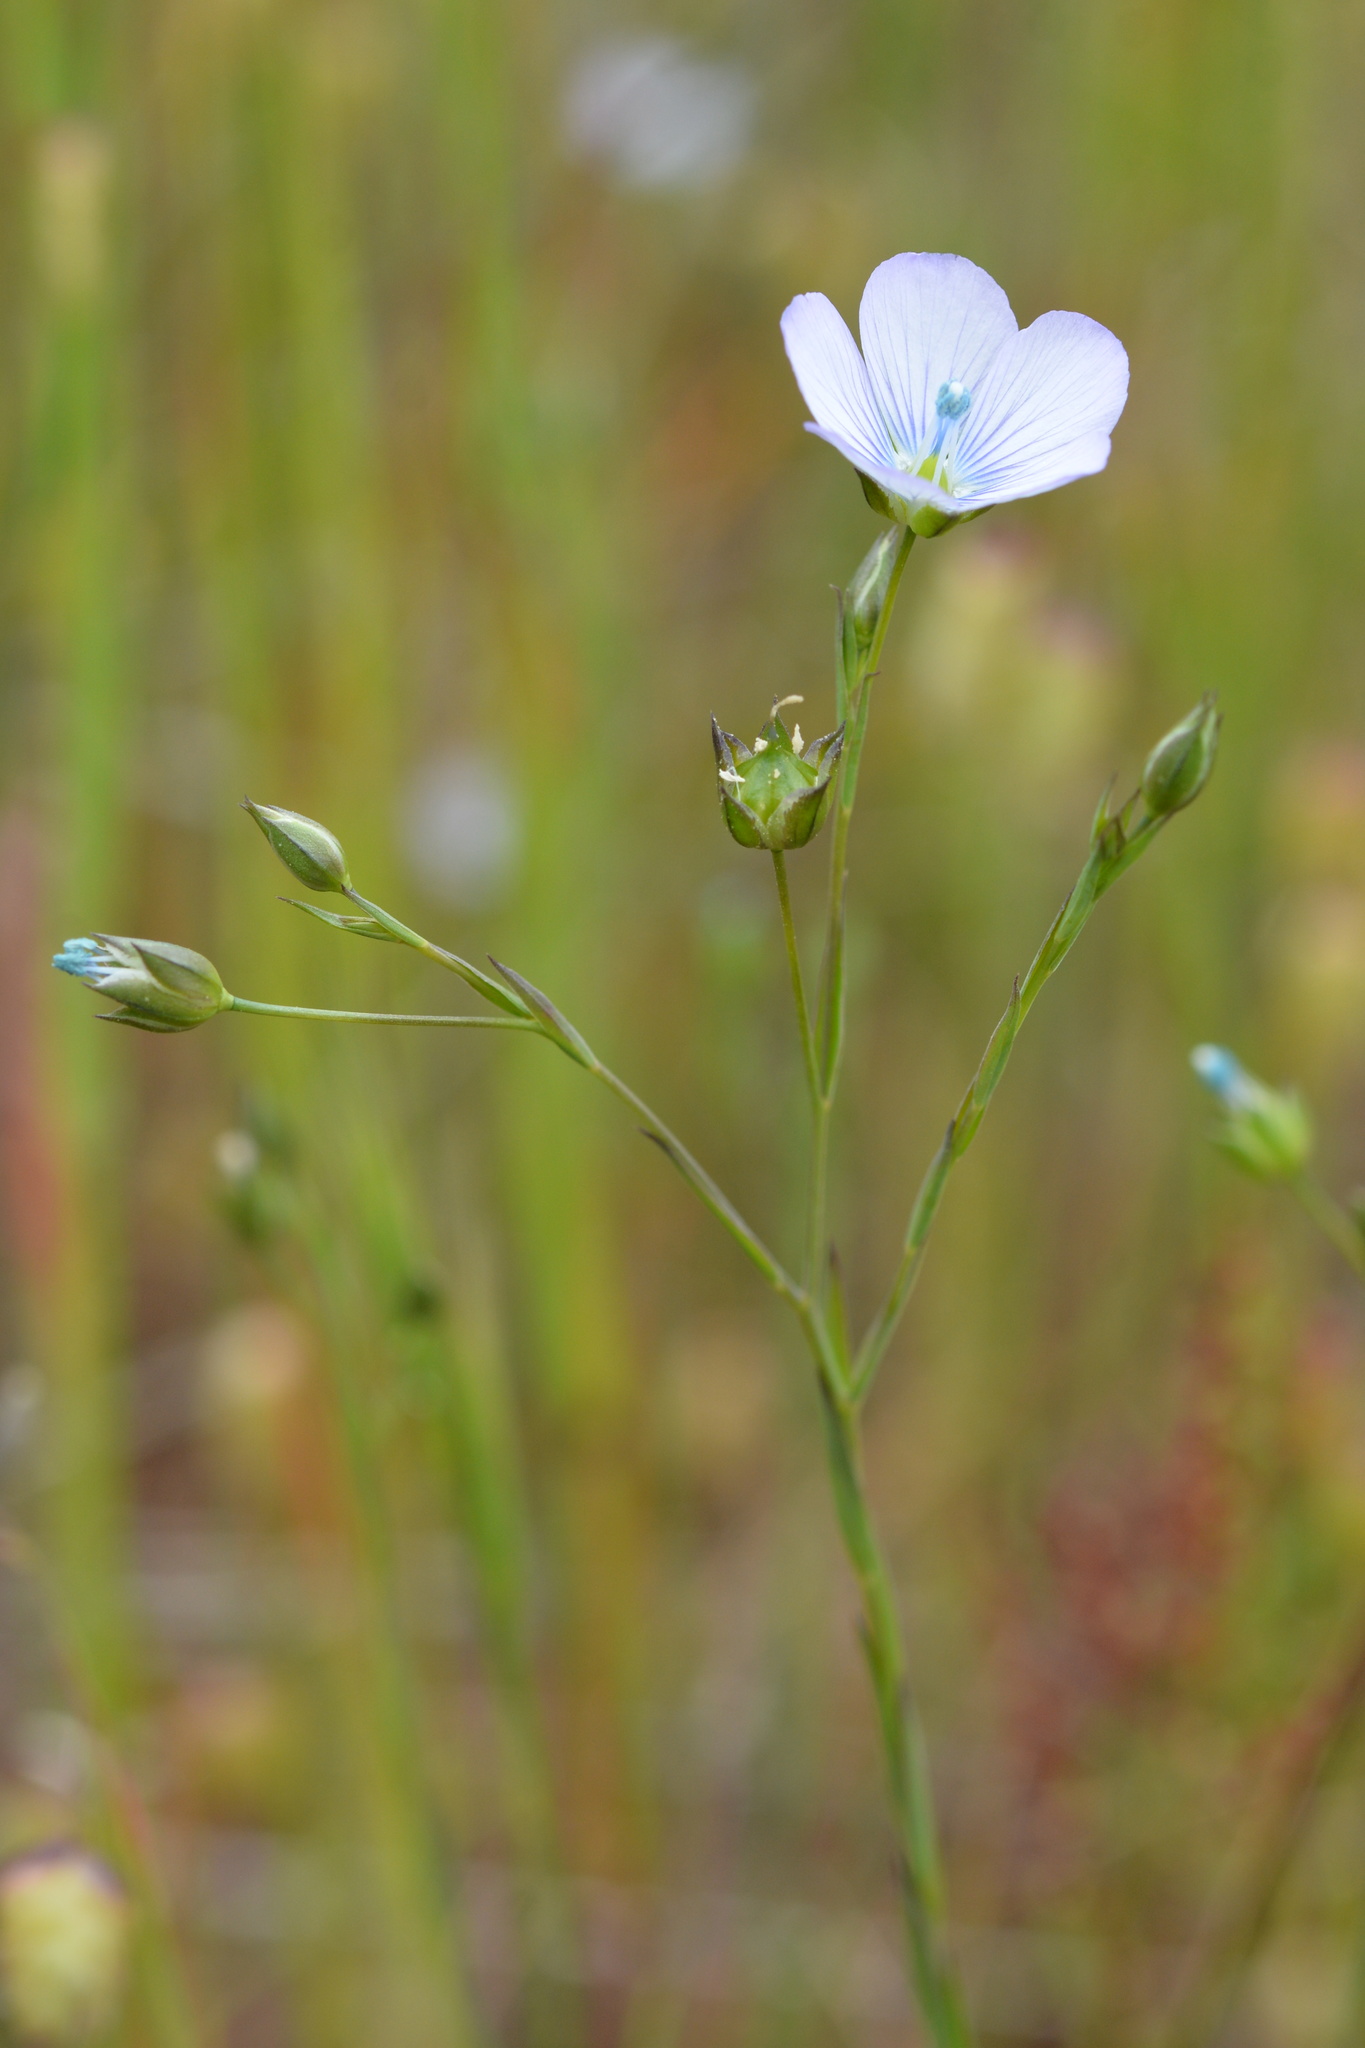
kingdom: Plantae
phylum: Tracheophyta
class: Magnoliopsida
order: Malpighiales
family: Linaceae
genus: Linum
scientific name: Linum bienne
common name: Pale flax
